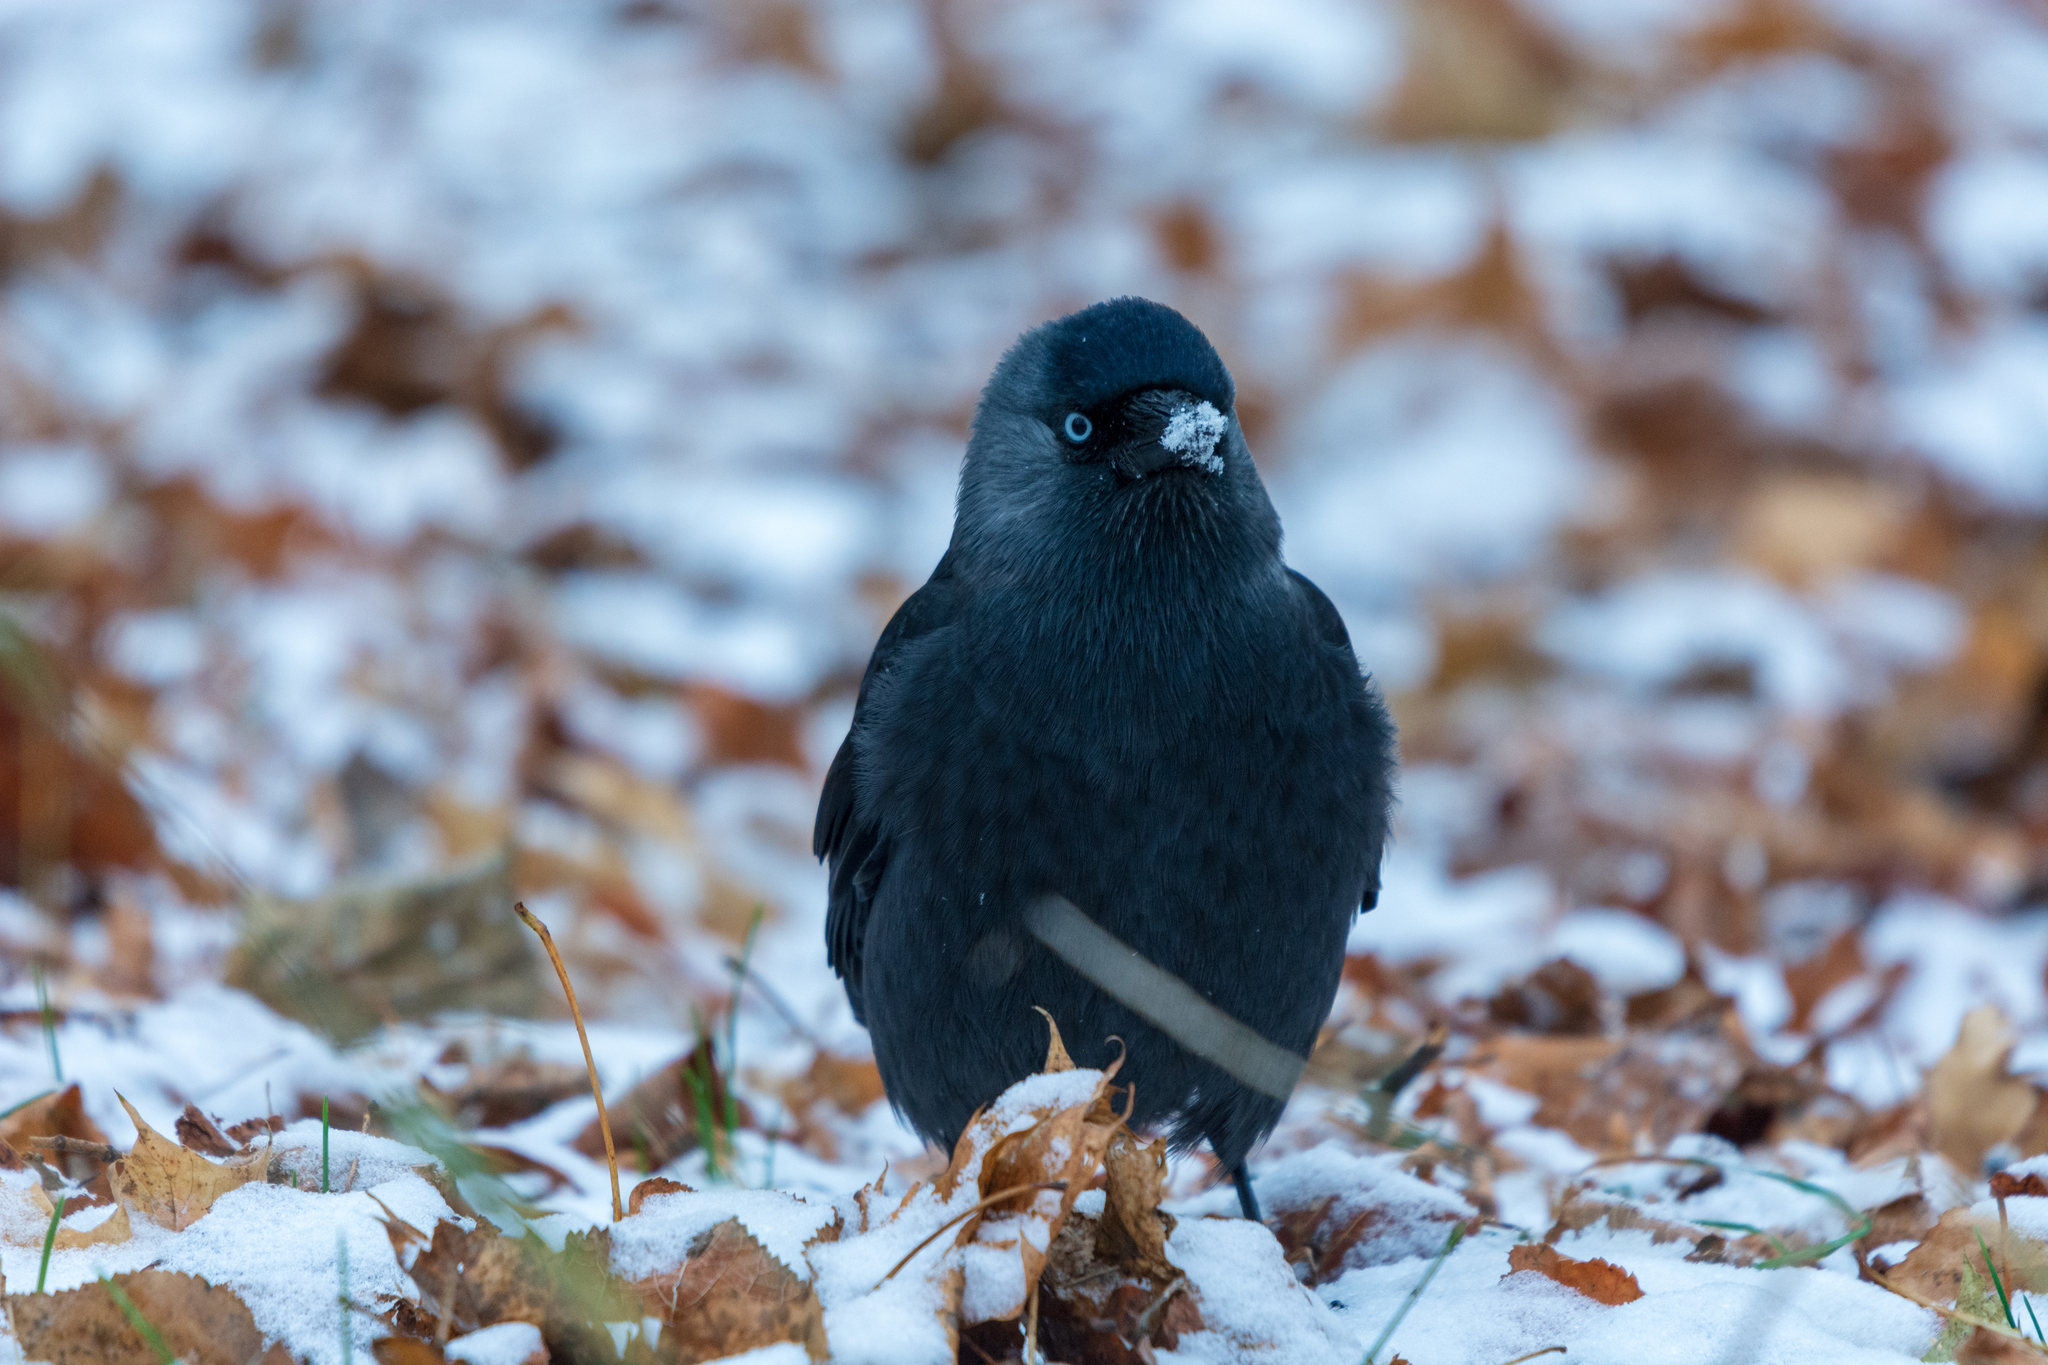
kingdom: Animalia
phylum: Chordata
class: Aves
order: Passeriformes
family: Corvidae
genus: Coloeus
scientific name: Coloeus monedula
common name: Western jackdaw
